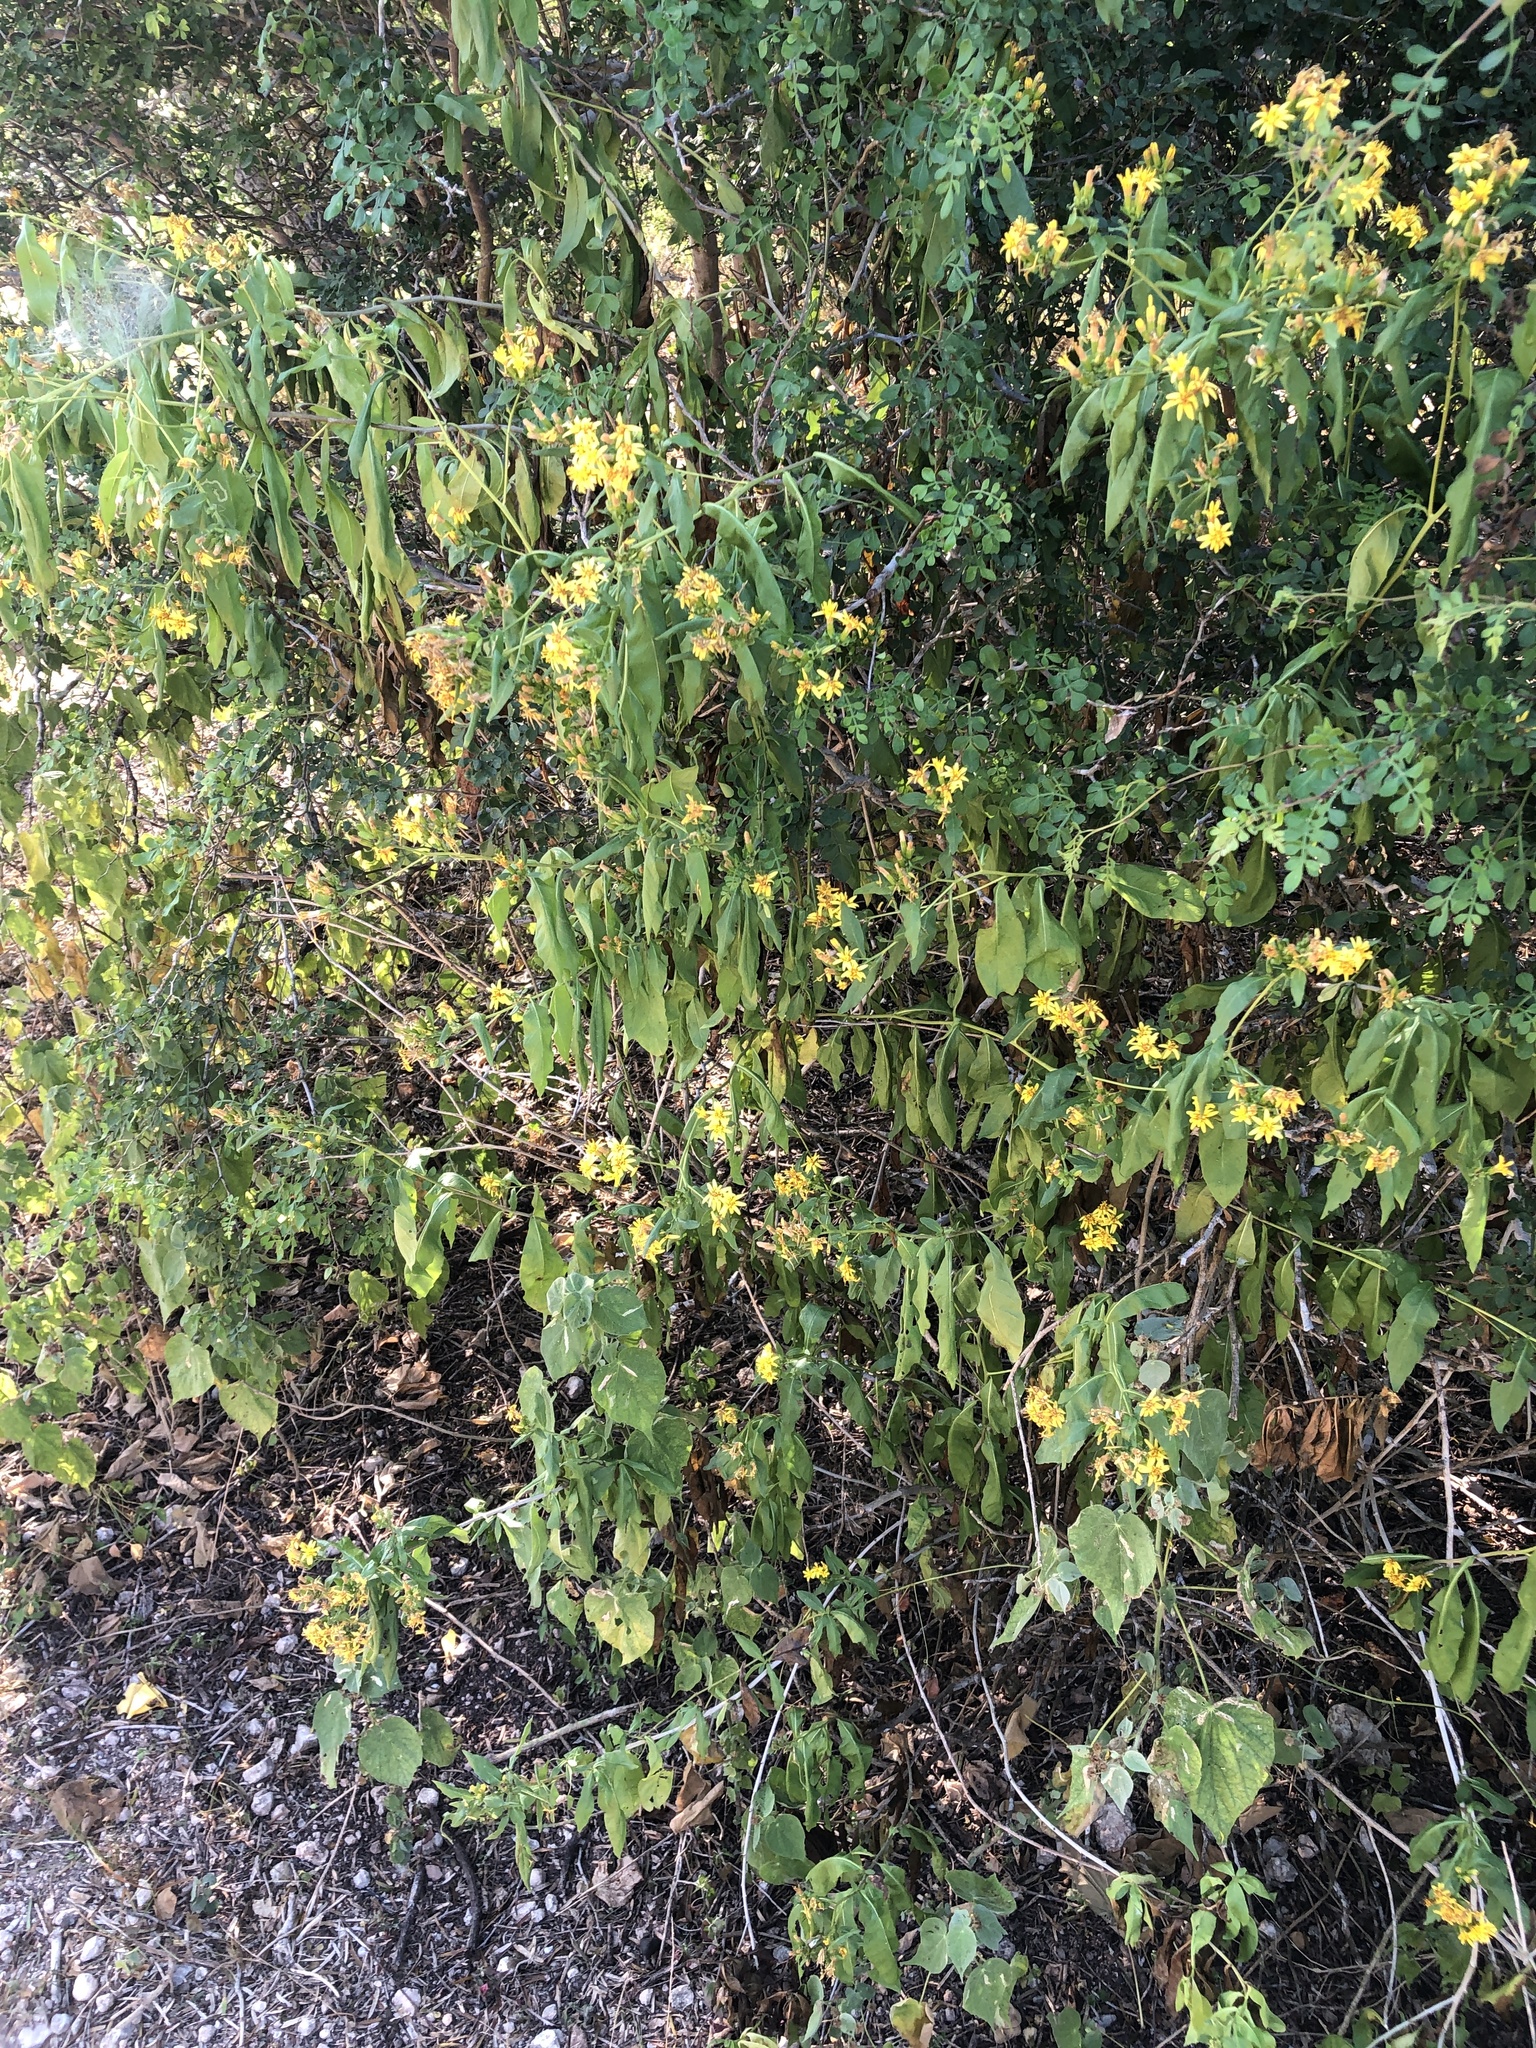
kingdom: Plantae
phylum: Tracheophyta
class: Magnoliopsida
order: Asterales
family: Asteraceae
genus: Trixis
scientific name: Trixis inula
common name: Tropical threefold
